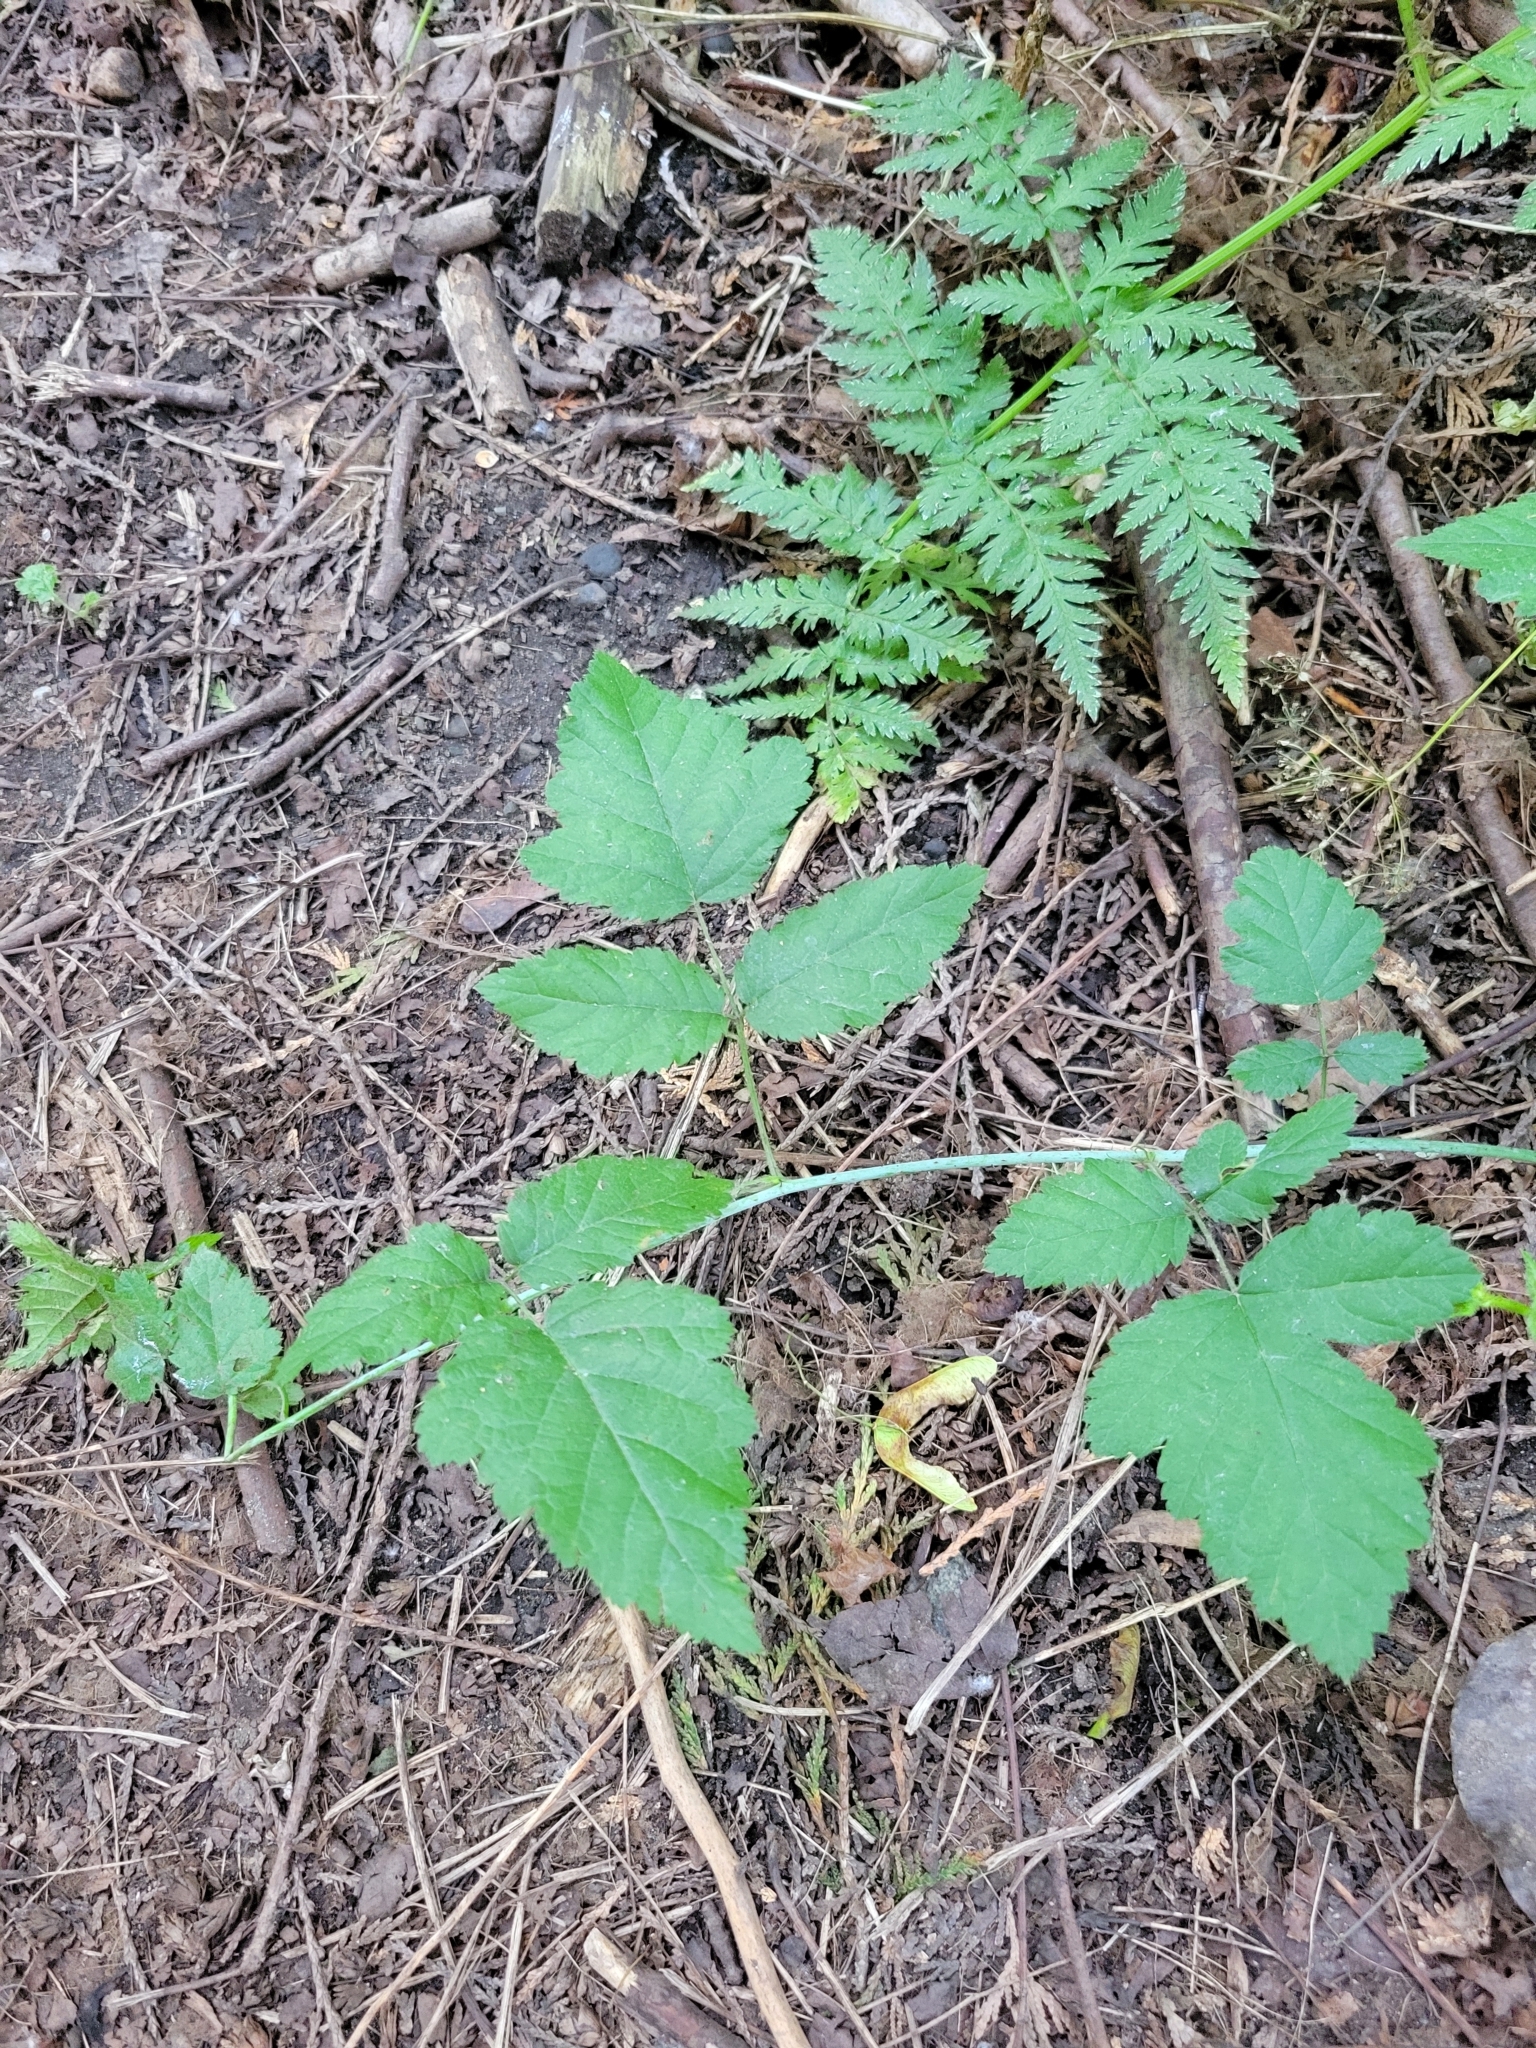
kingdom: Plantae
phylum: Tracheophyta
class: Magnoliopsida
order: Rosales
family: Rosaceae
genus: Rubus
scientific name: Rubus ursinus
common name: Pacific blackberry
